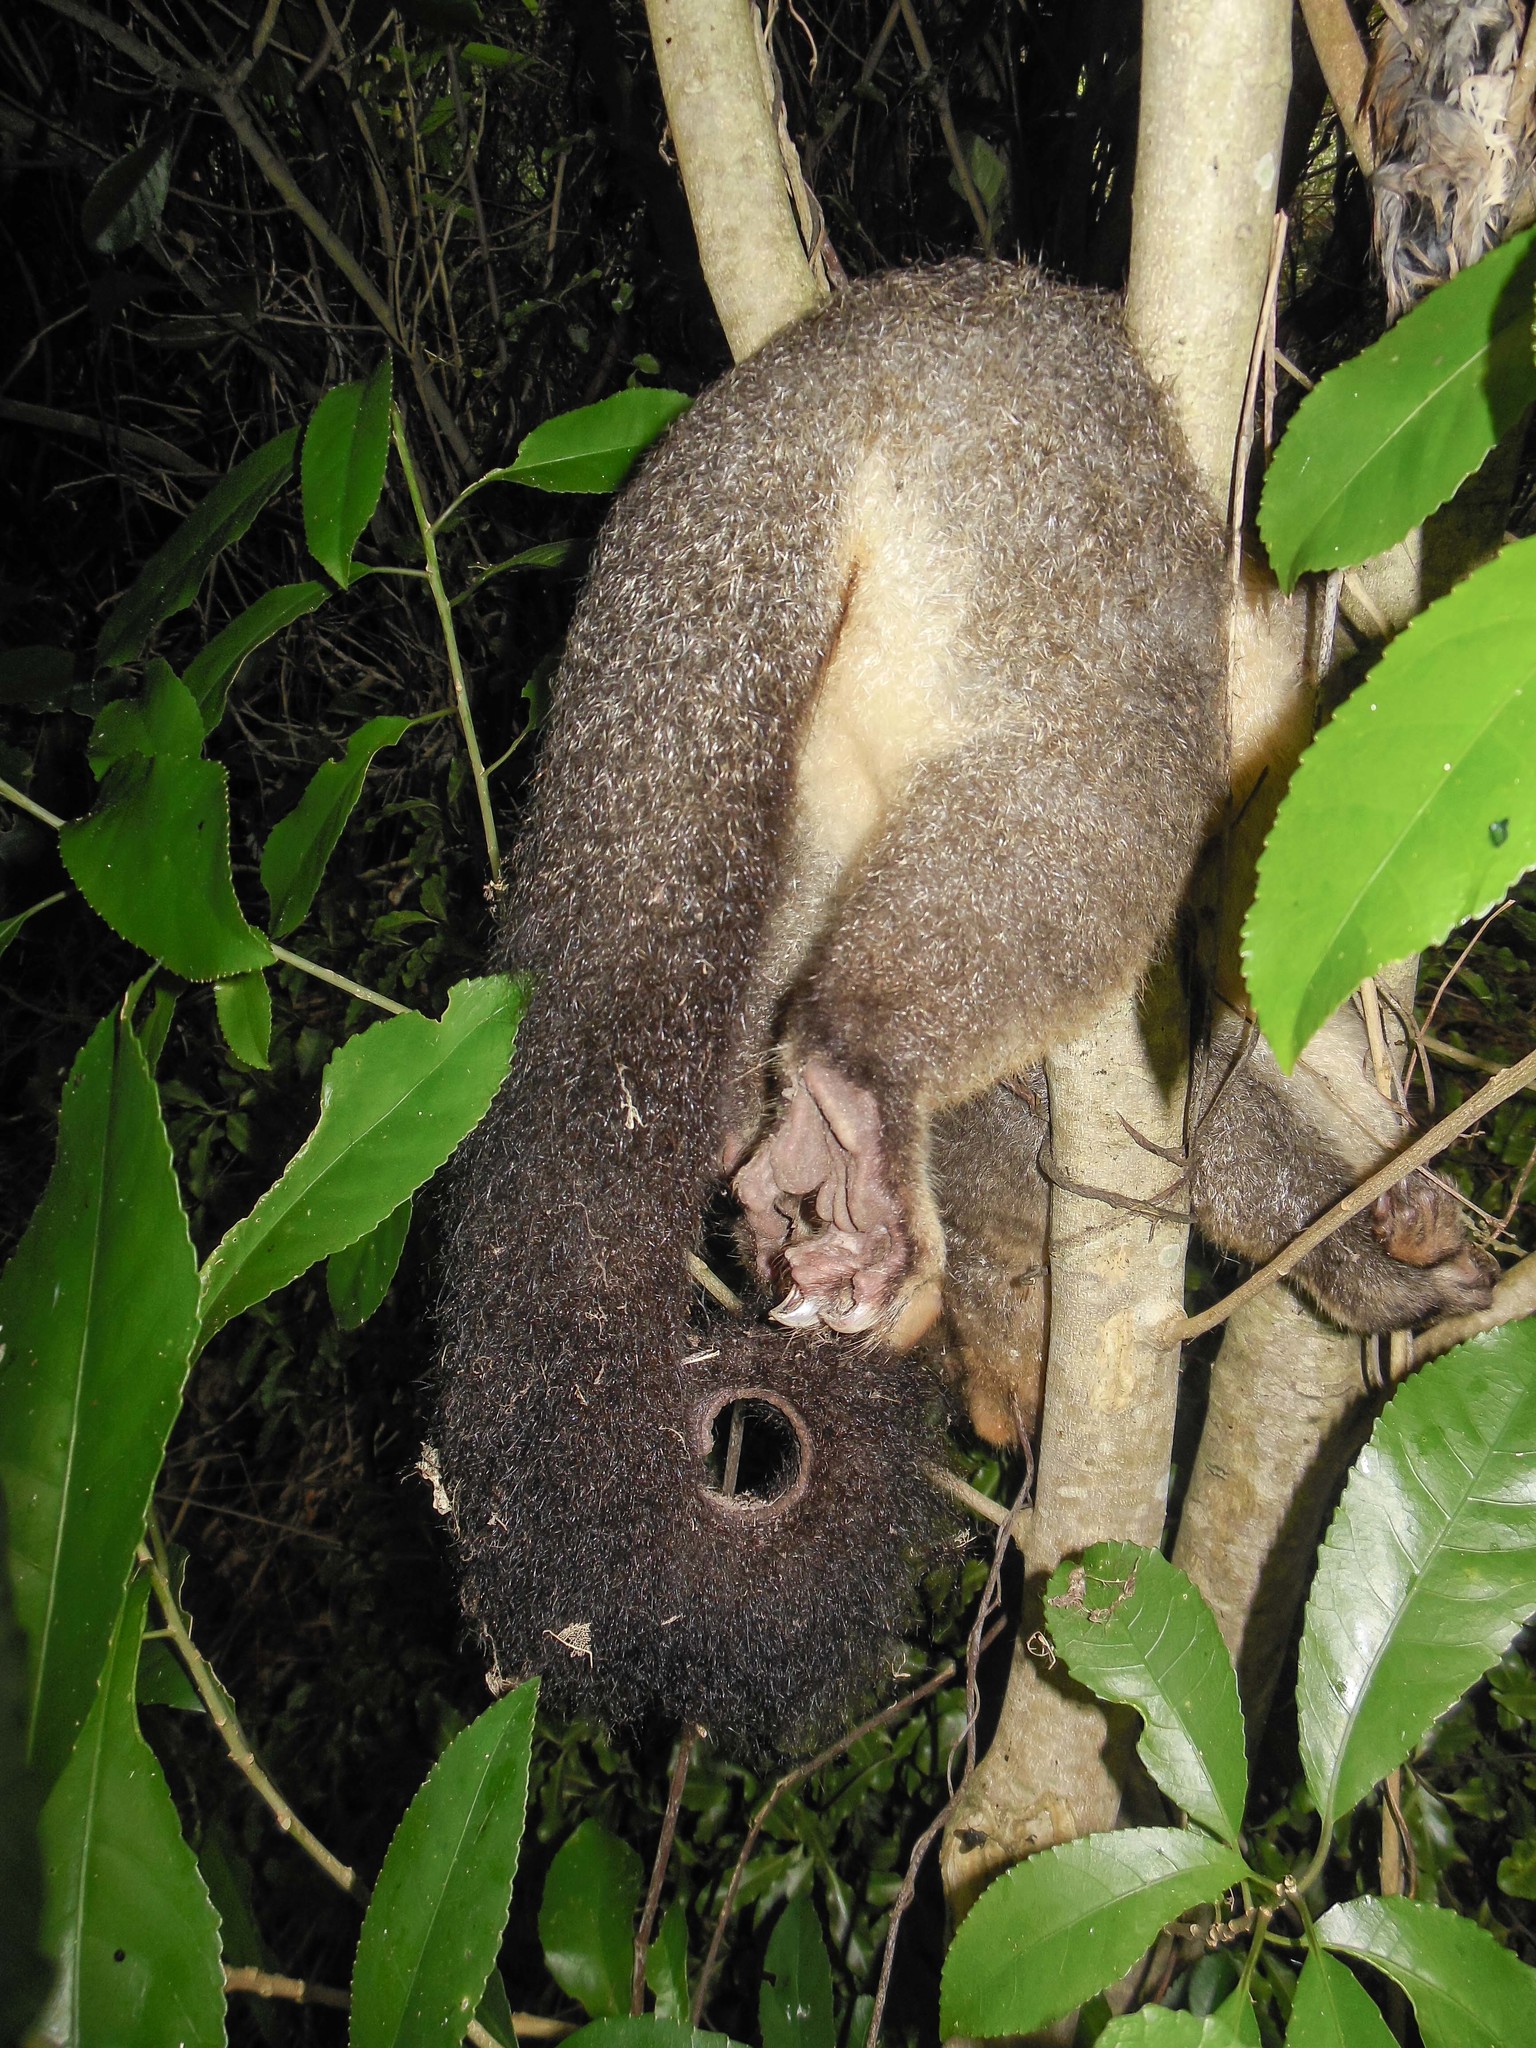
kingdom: Animalia
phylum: Chordata
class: Mammalia
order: Diprotodontia
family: Phalangeridae
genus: Trichosurus
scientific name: Trichosurus vulpecula
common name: Common brushtail
